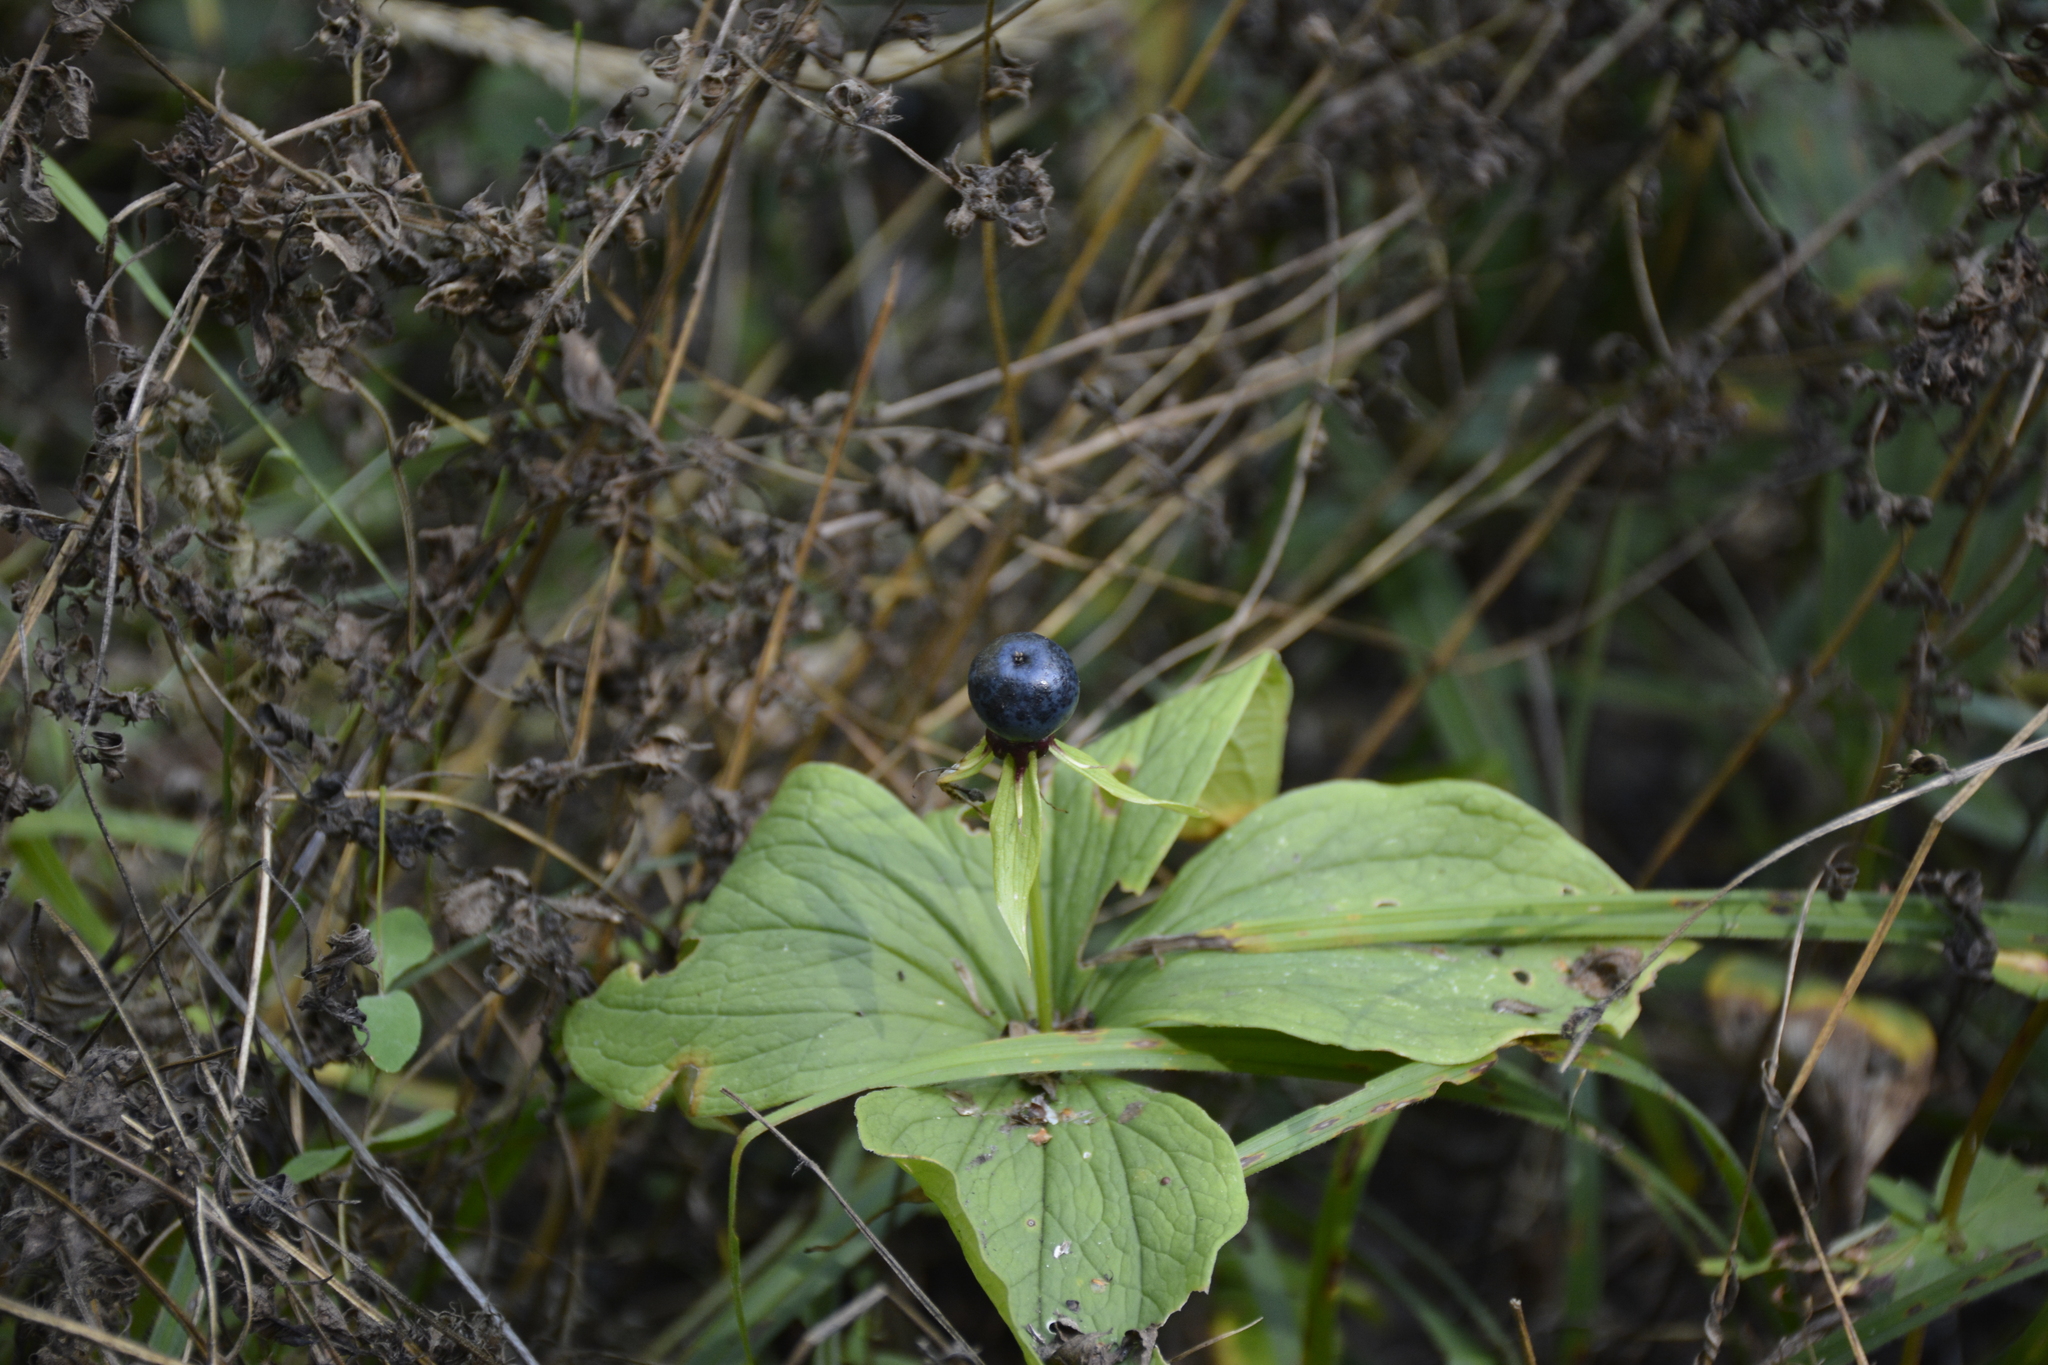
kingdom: Plantae
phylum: Tracheophyta
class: Liliopsida
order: Liliales
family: Melanthiaceae
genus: Paris
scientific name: Paris quadrifolia
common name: Herb-paris
